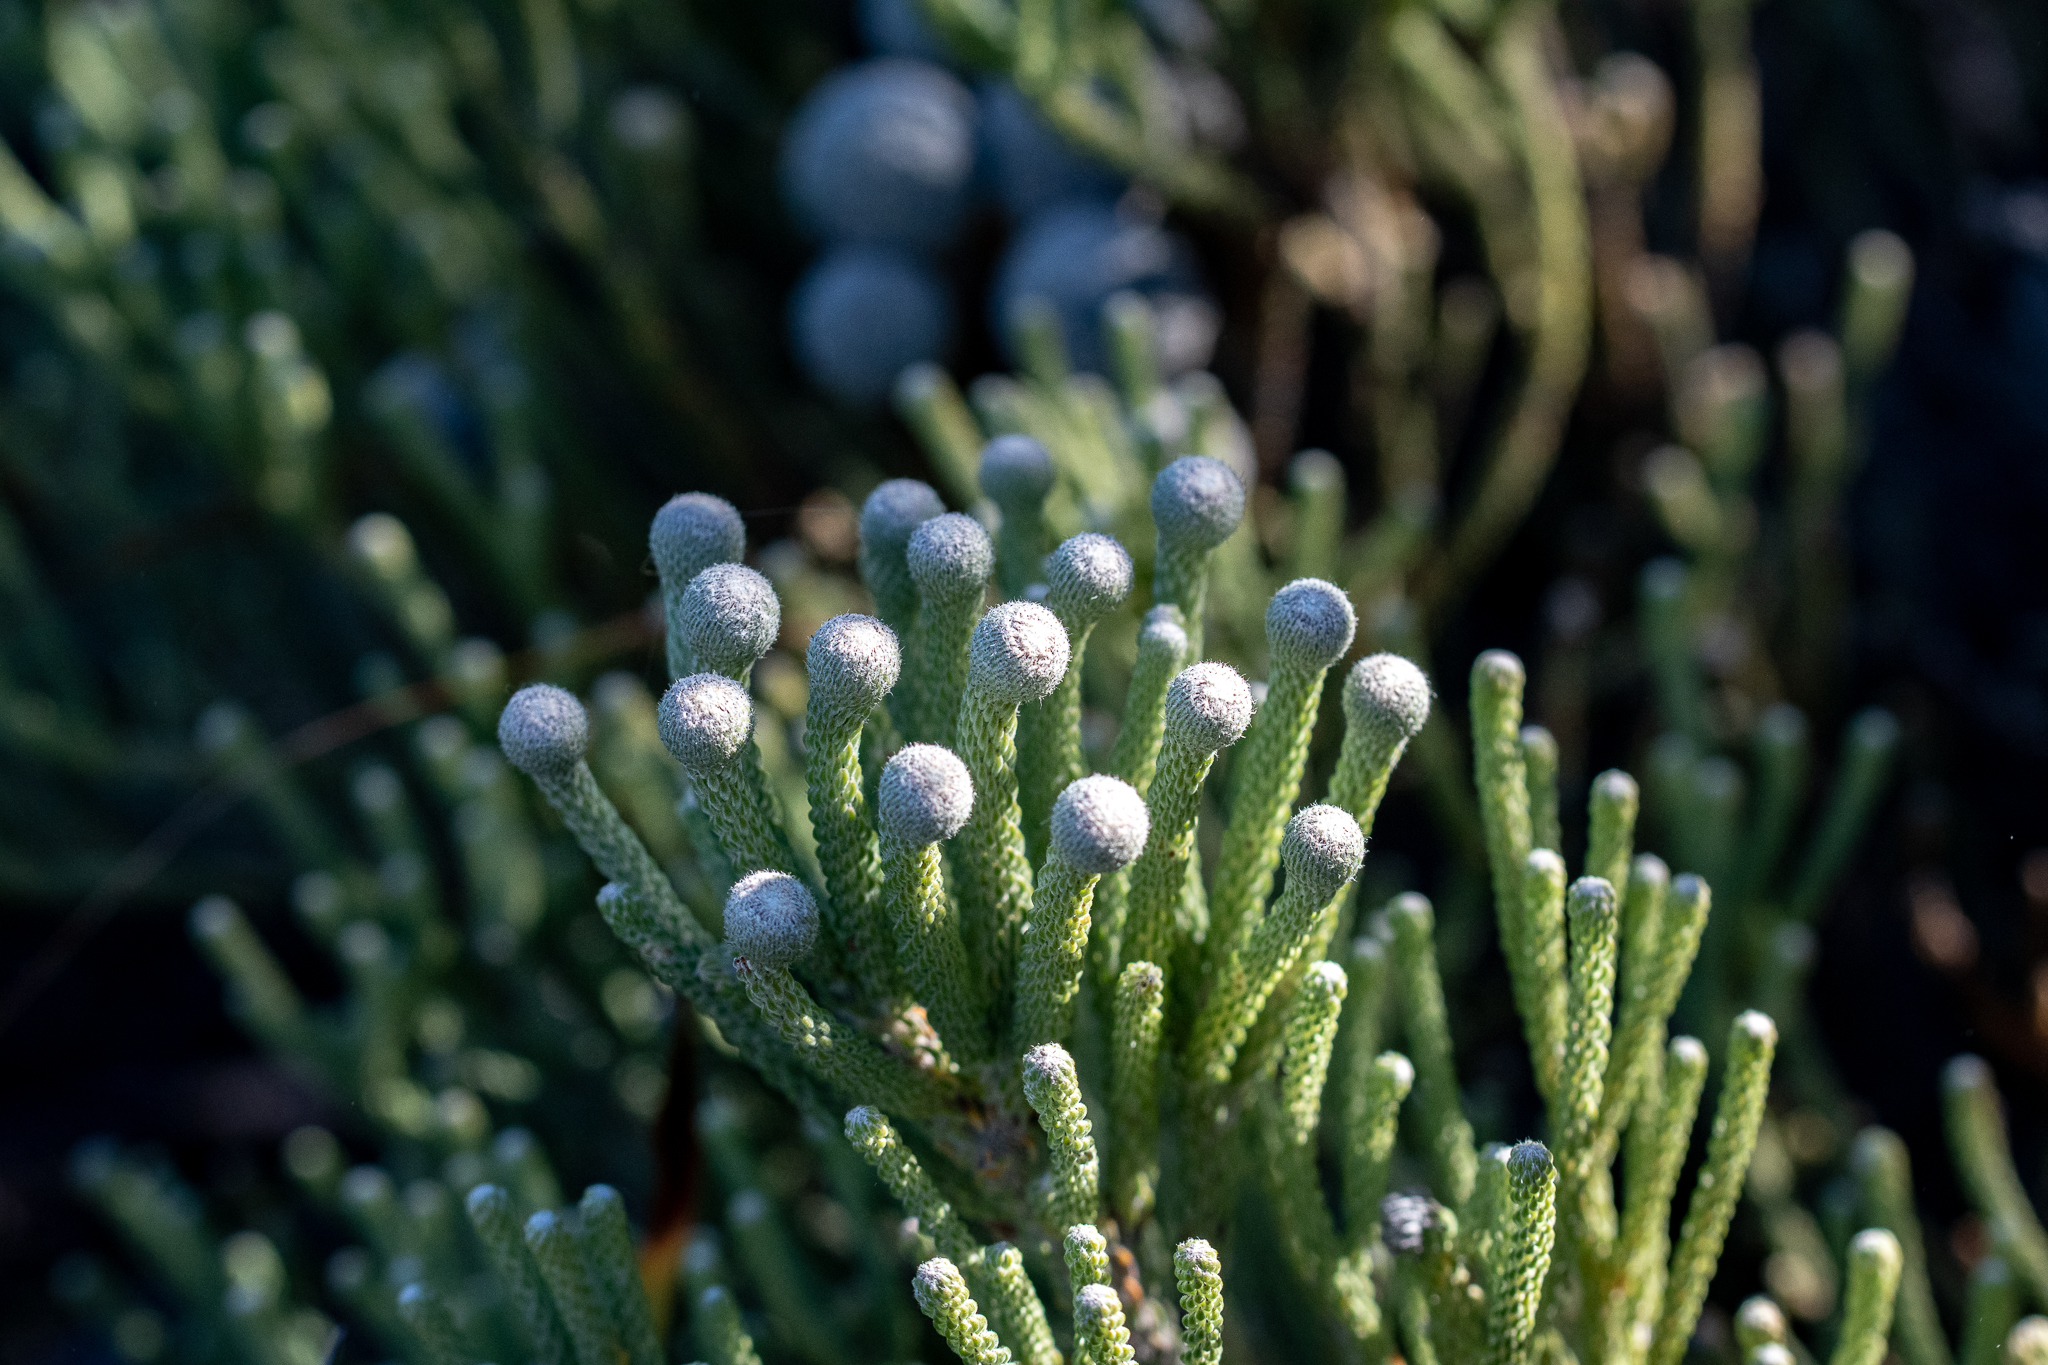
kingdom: Plantae
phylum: Tracheophyta
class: Magnoliopsida
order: Bruniales
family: Bruniaceae
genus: Brunia
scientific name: Brunia laevis
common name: Silver brunia
